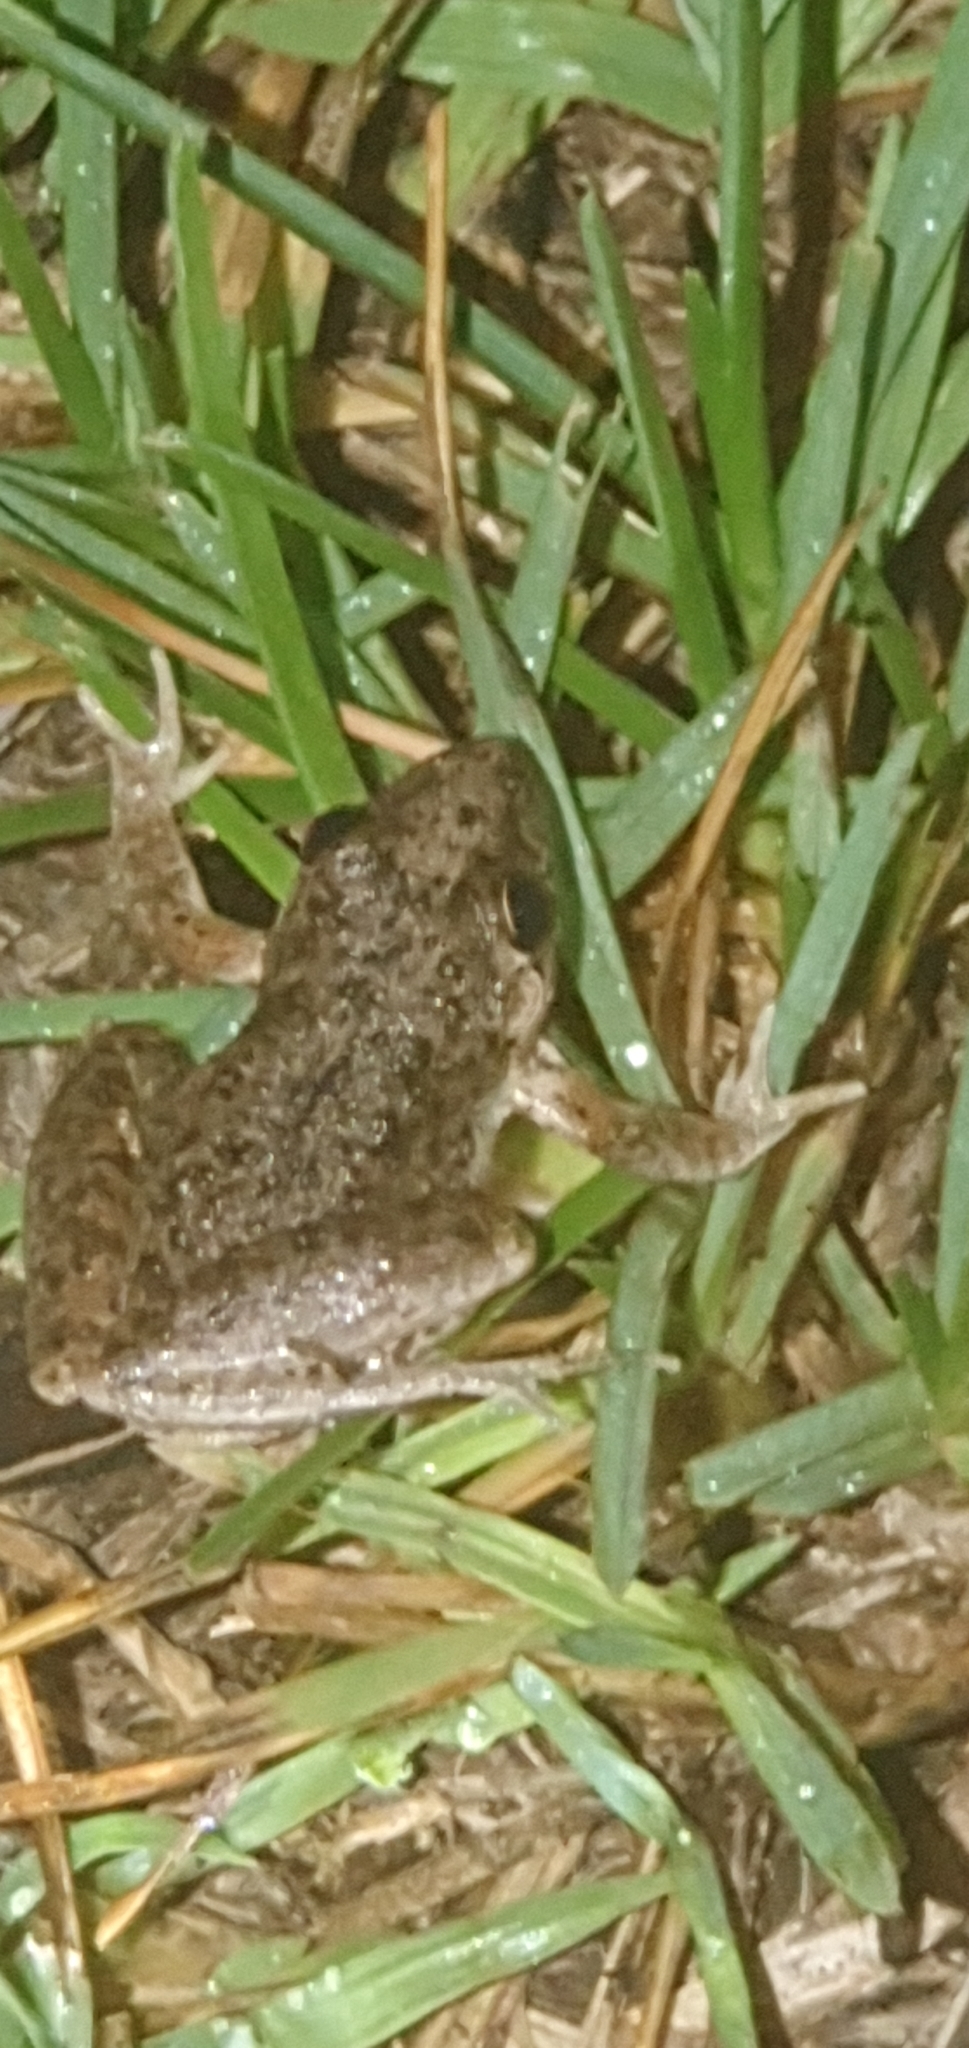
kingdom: Animalia
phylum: Chordata
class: Amphibia
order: Anura
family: Pelodryadidae
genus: Litoria
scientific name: Litoria inermis
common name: Bumpy rocket frog
